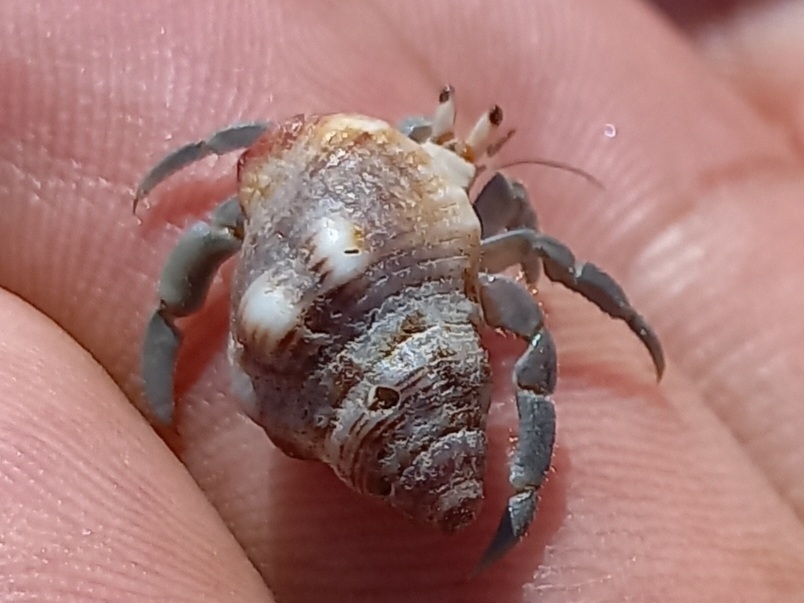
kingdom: Animalia
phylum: Arthropoda
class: Malacostraca
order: Decapoda
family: Coenobitidae
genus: Coenobita
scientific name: Coenobita compressus
